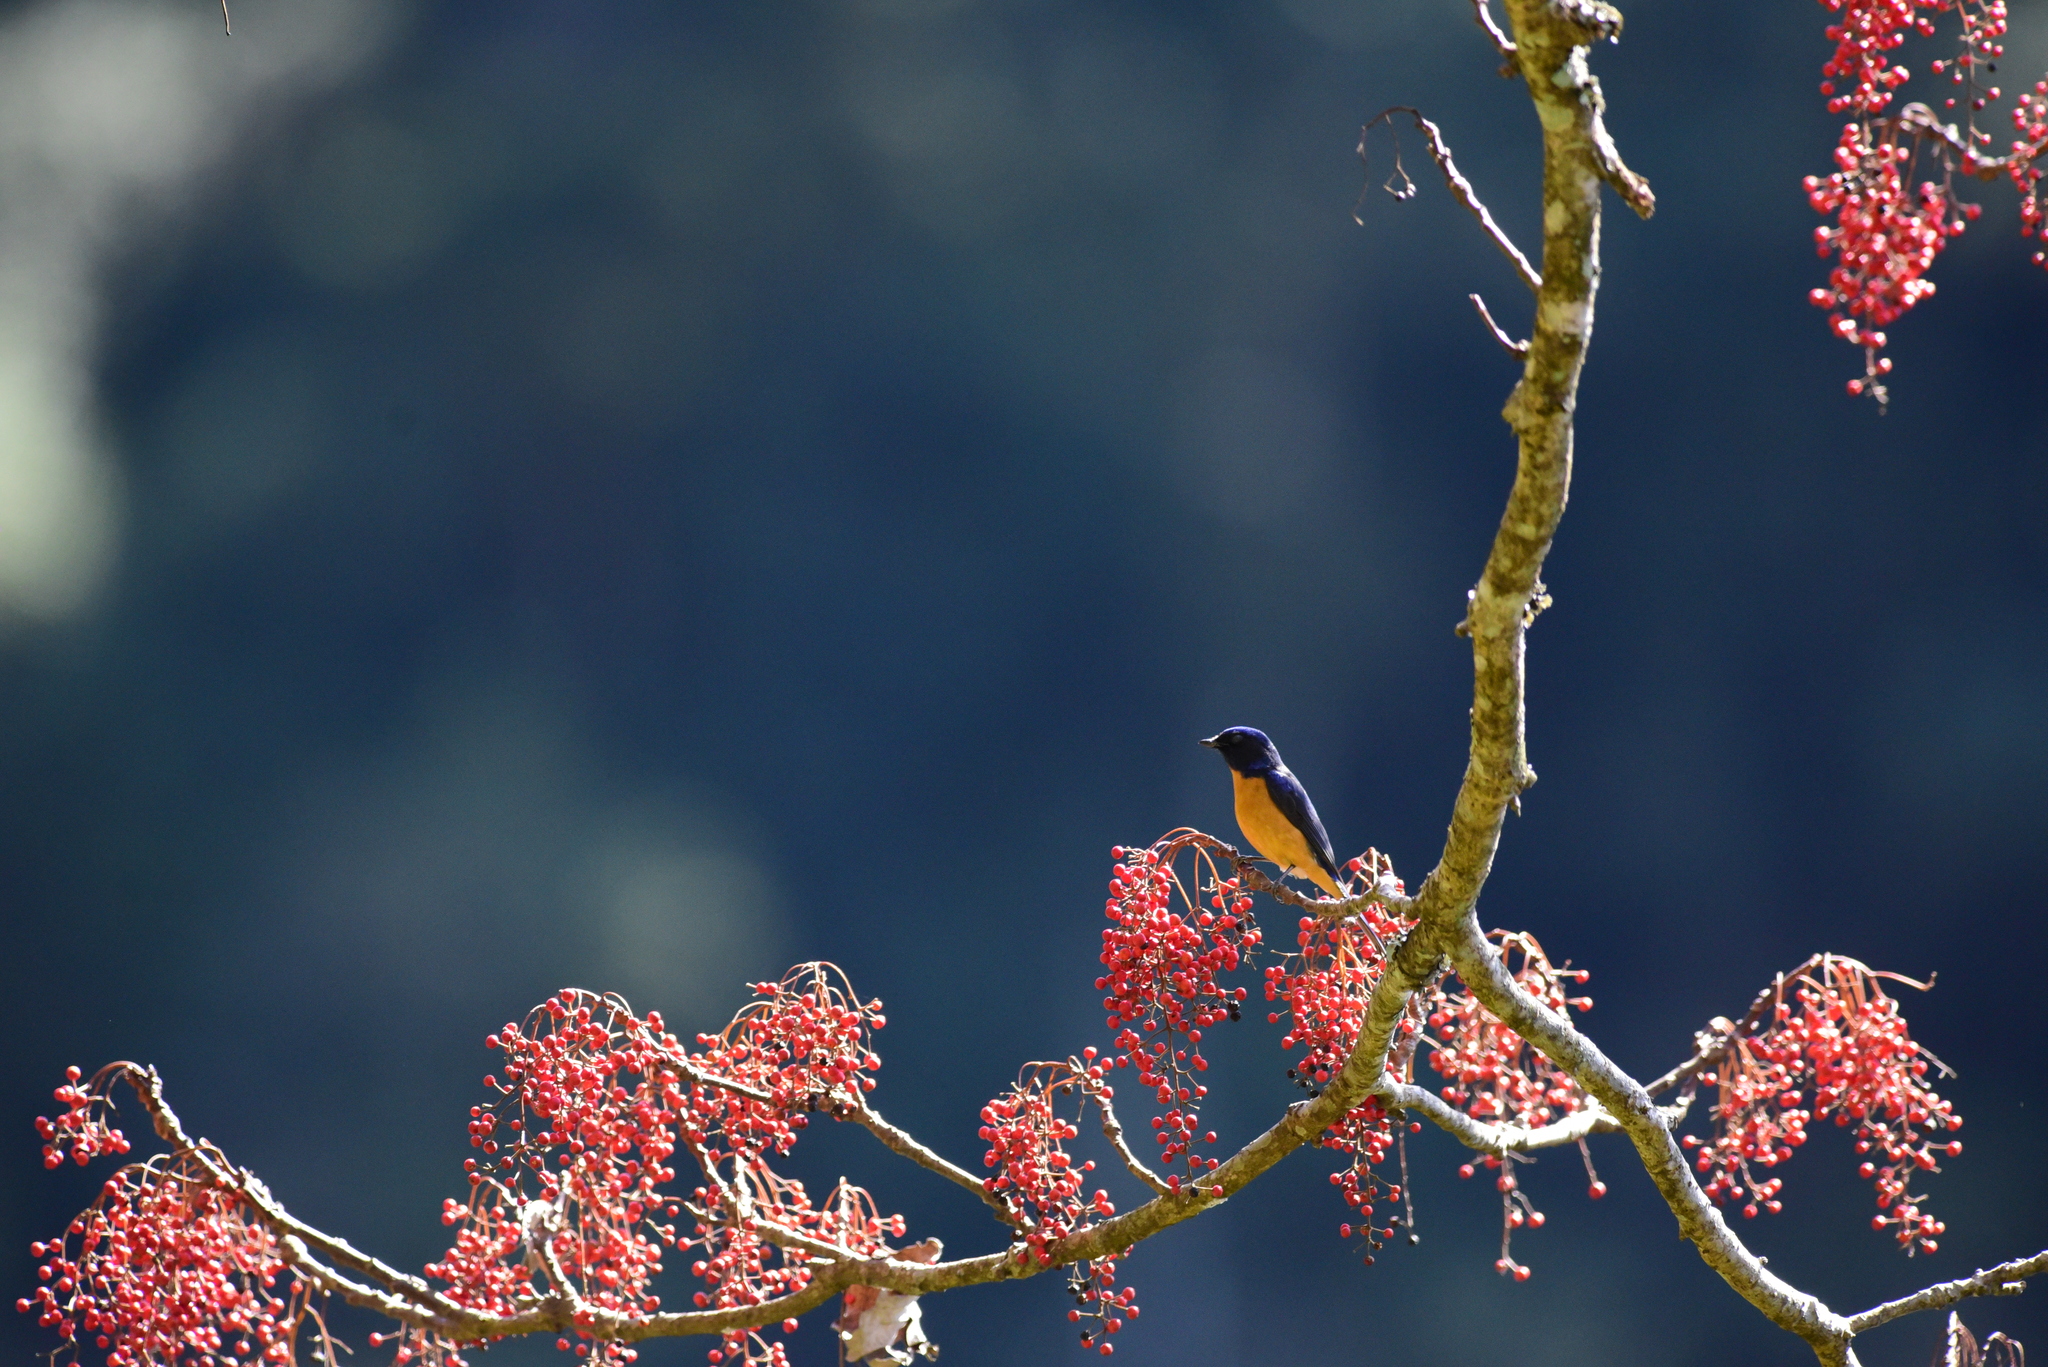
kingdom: Animalia
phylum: Chordata
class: Aves
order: Passeriformes
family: Muscicapidae
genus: Niltava
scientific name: Niltava vivida
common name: Vivid niltava
